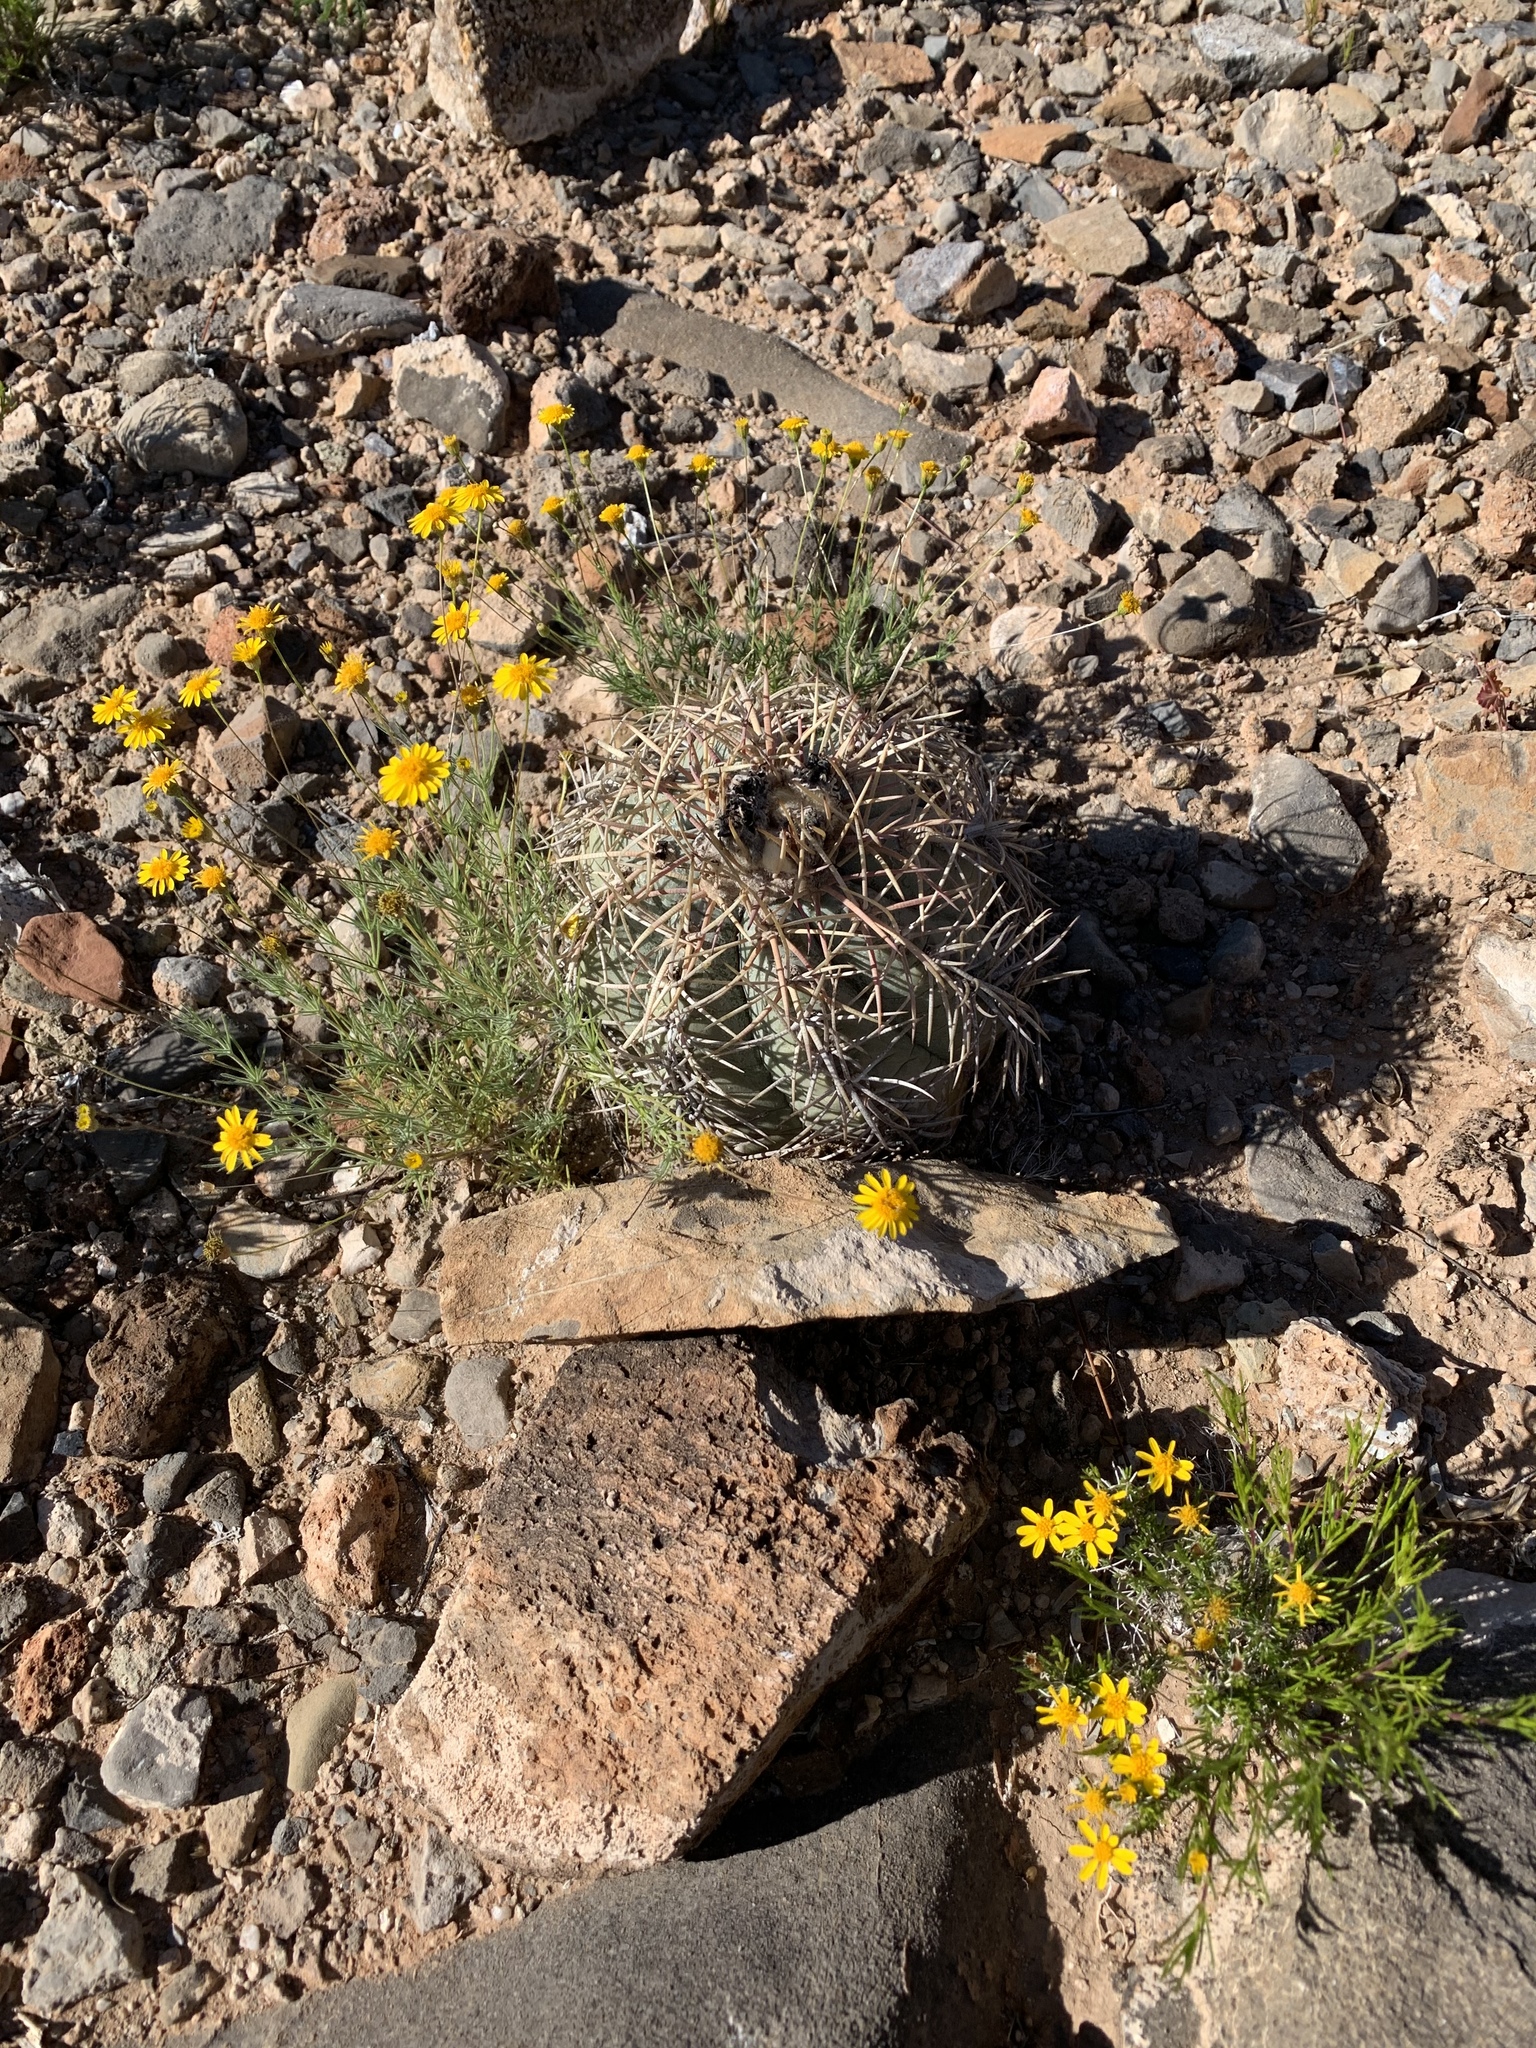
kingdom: Plantae
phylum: Tracheophyta
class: Magnoliopsida
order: Caryophyllales
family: Cactaceae
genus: Echinocactus
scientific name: Echinocactus horizonthalonius
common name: Devilshead
